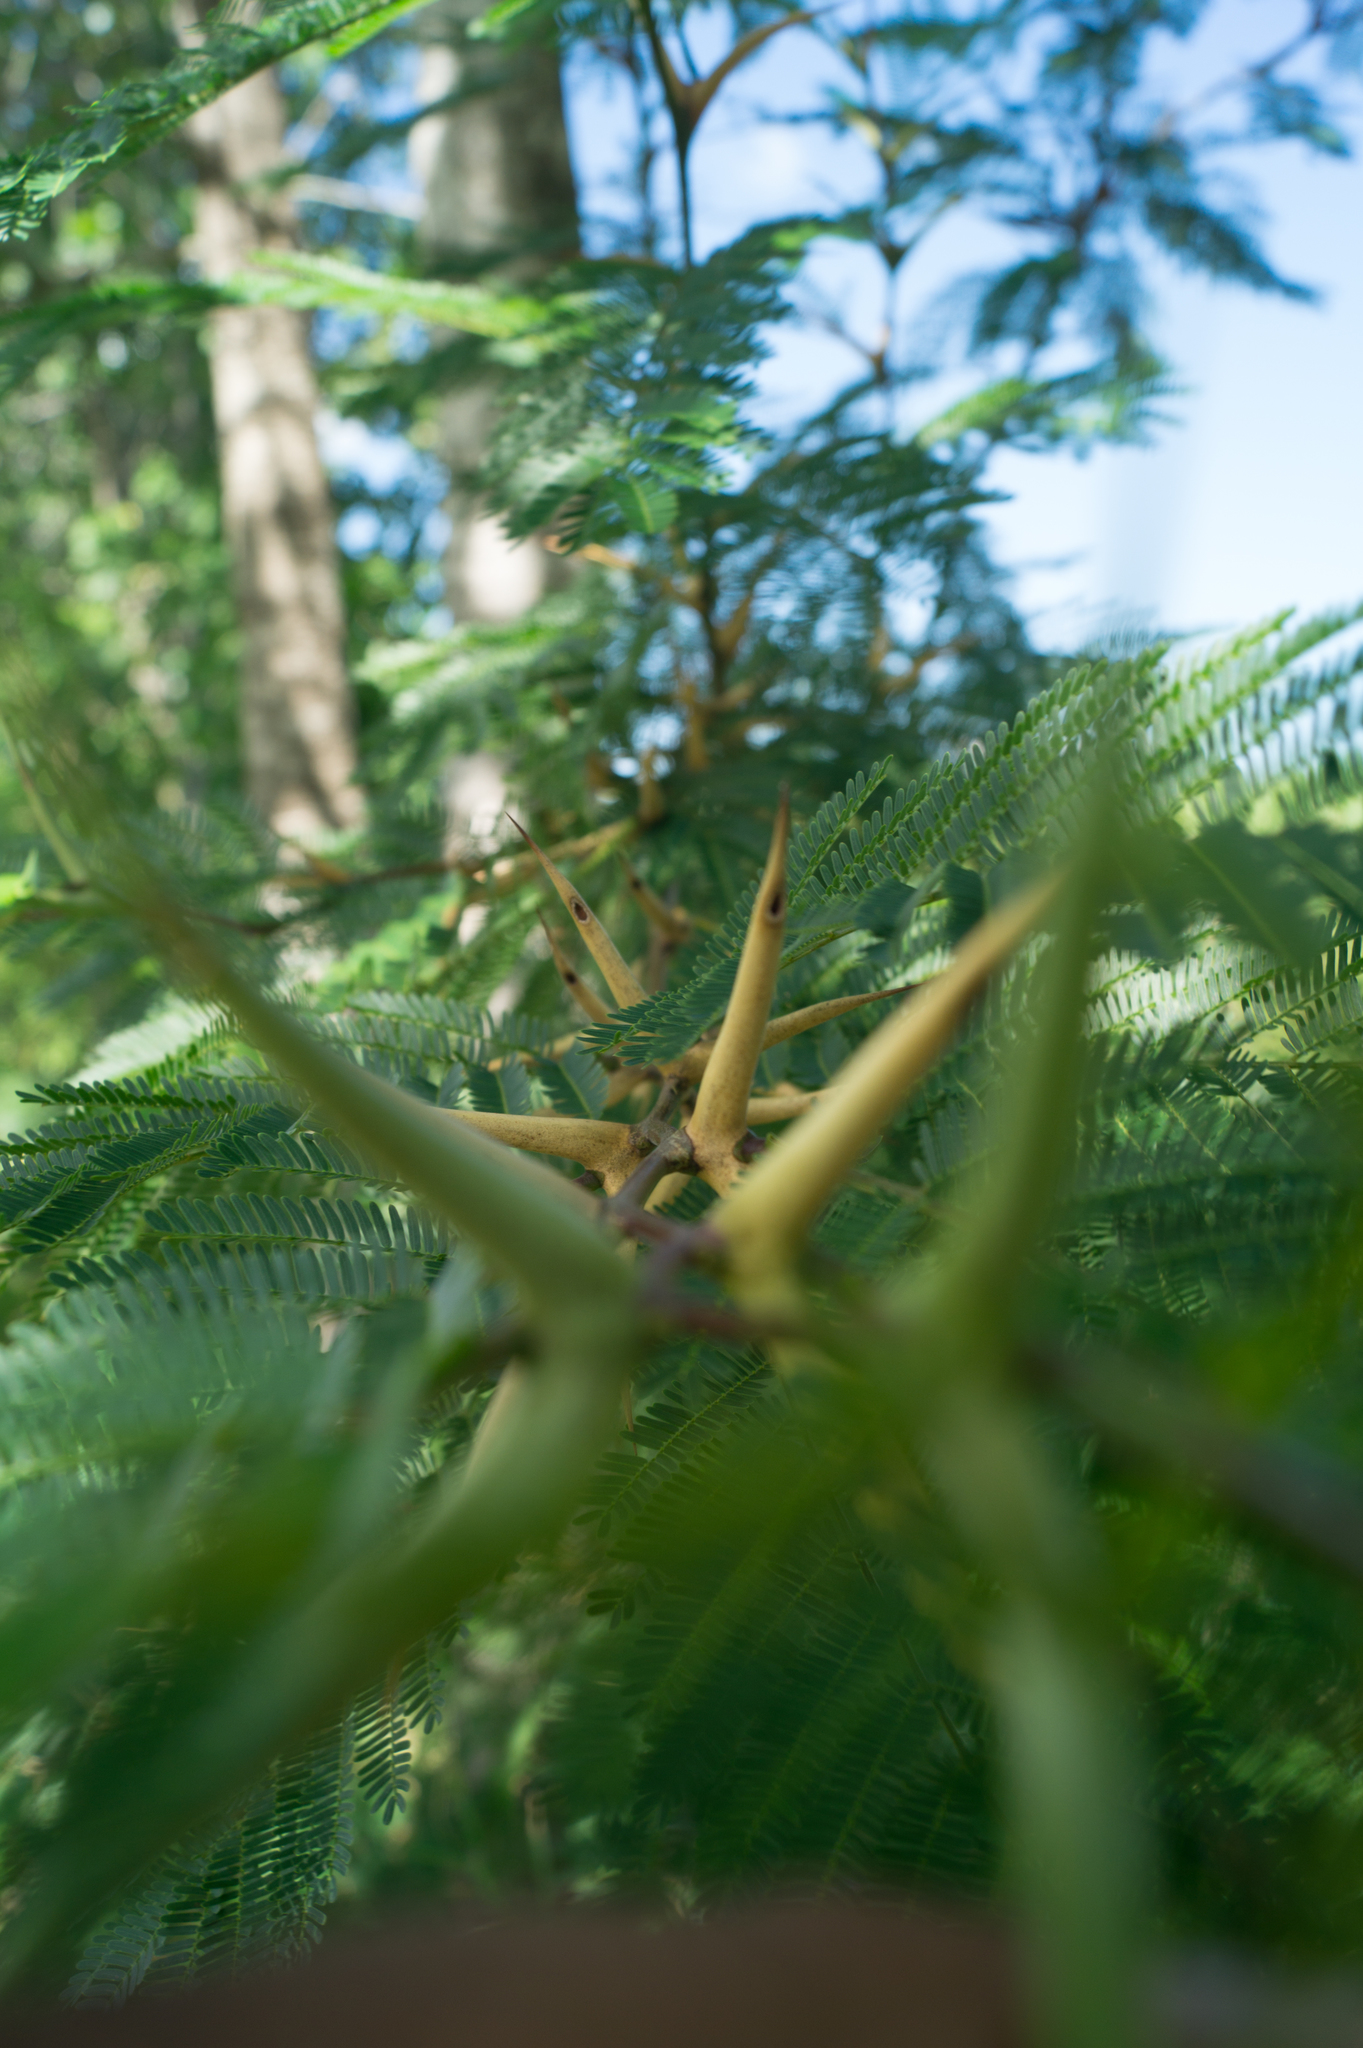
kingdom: Plantae
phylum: Tracheophyta
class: Magnoliopsida
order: Fabales
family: Fabaceae
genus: Vachellia
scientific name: Vachellia cornigera
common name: Bullhorn wattle
